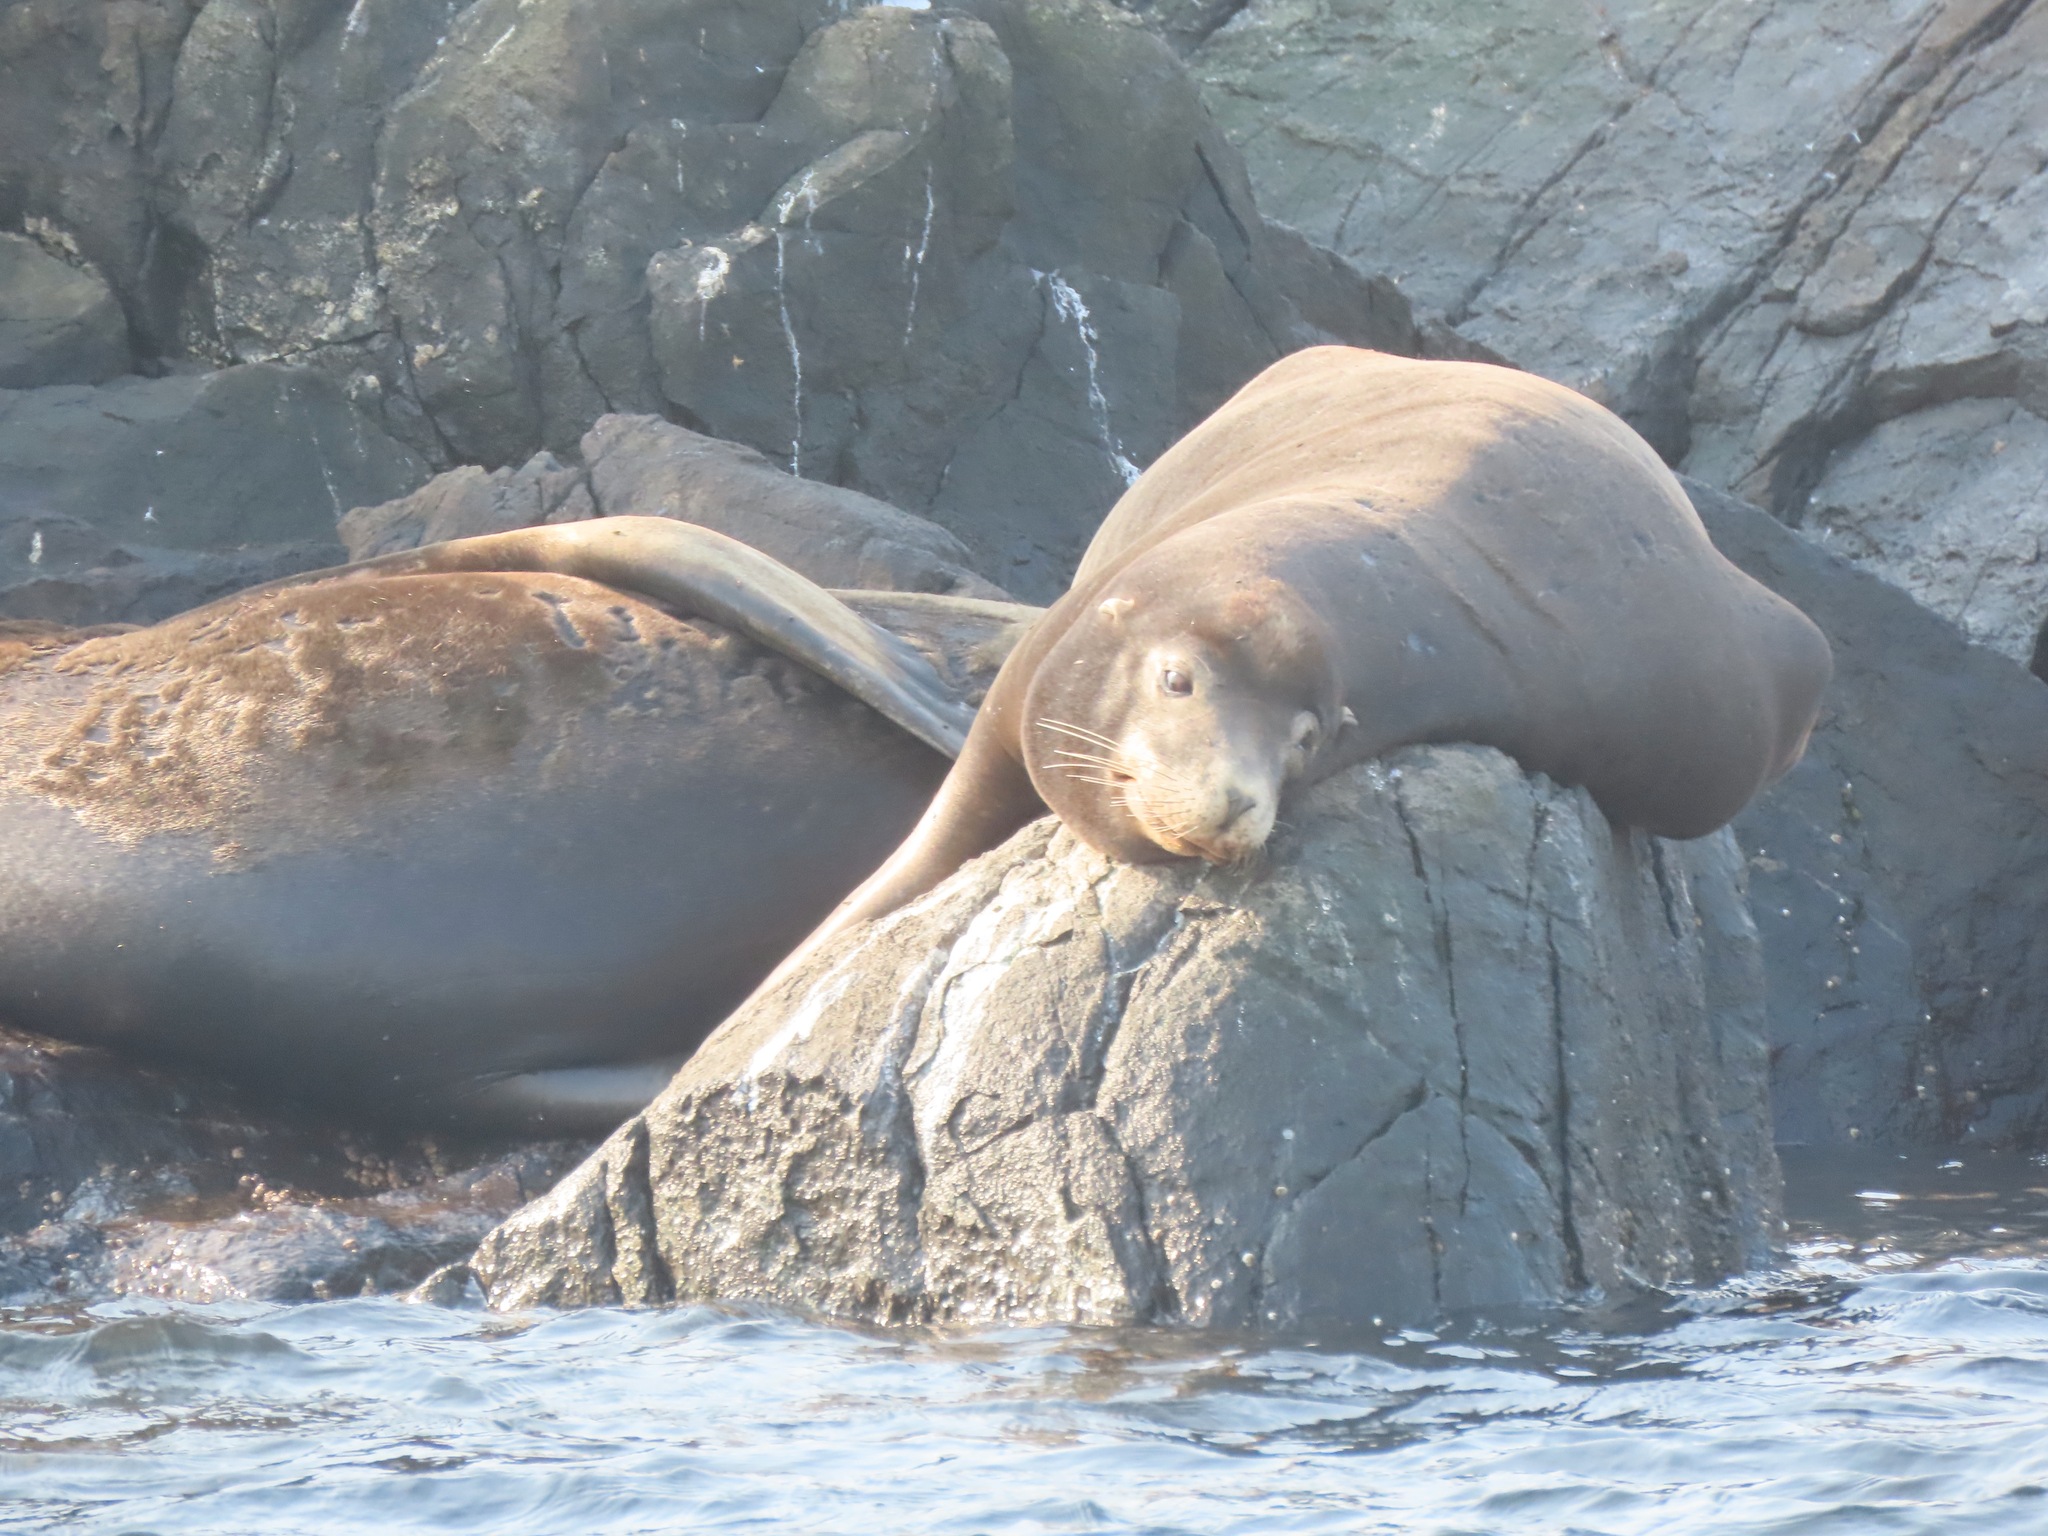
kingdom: Animalia
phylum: Chordata
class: Mammalia
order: Carnivora
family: Otariidae
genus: Zalophus
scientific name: Zalophus californianus
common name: California sea lion
